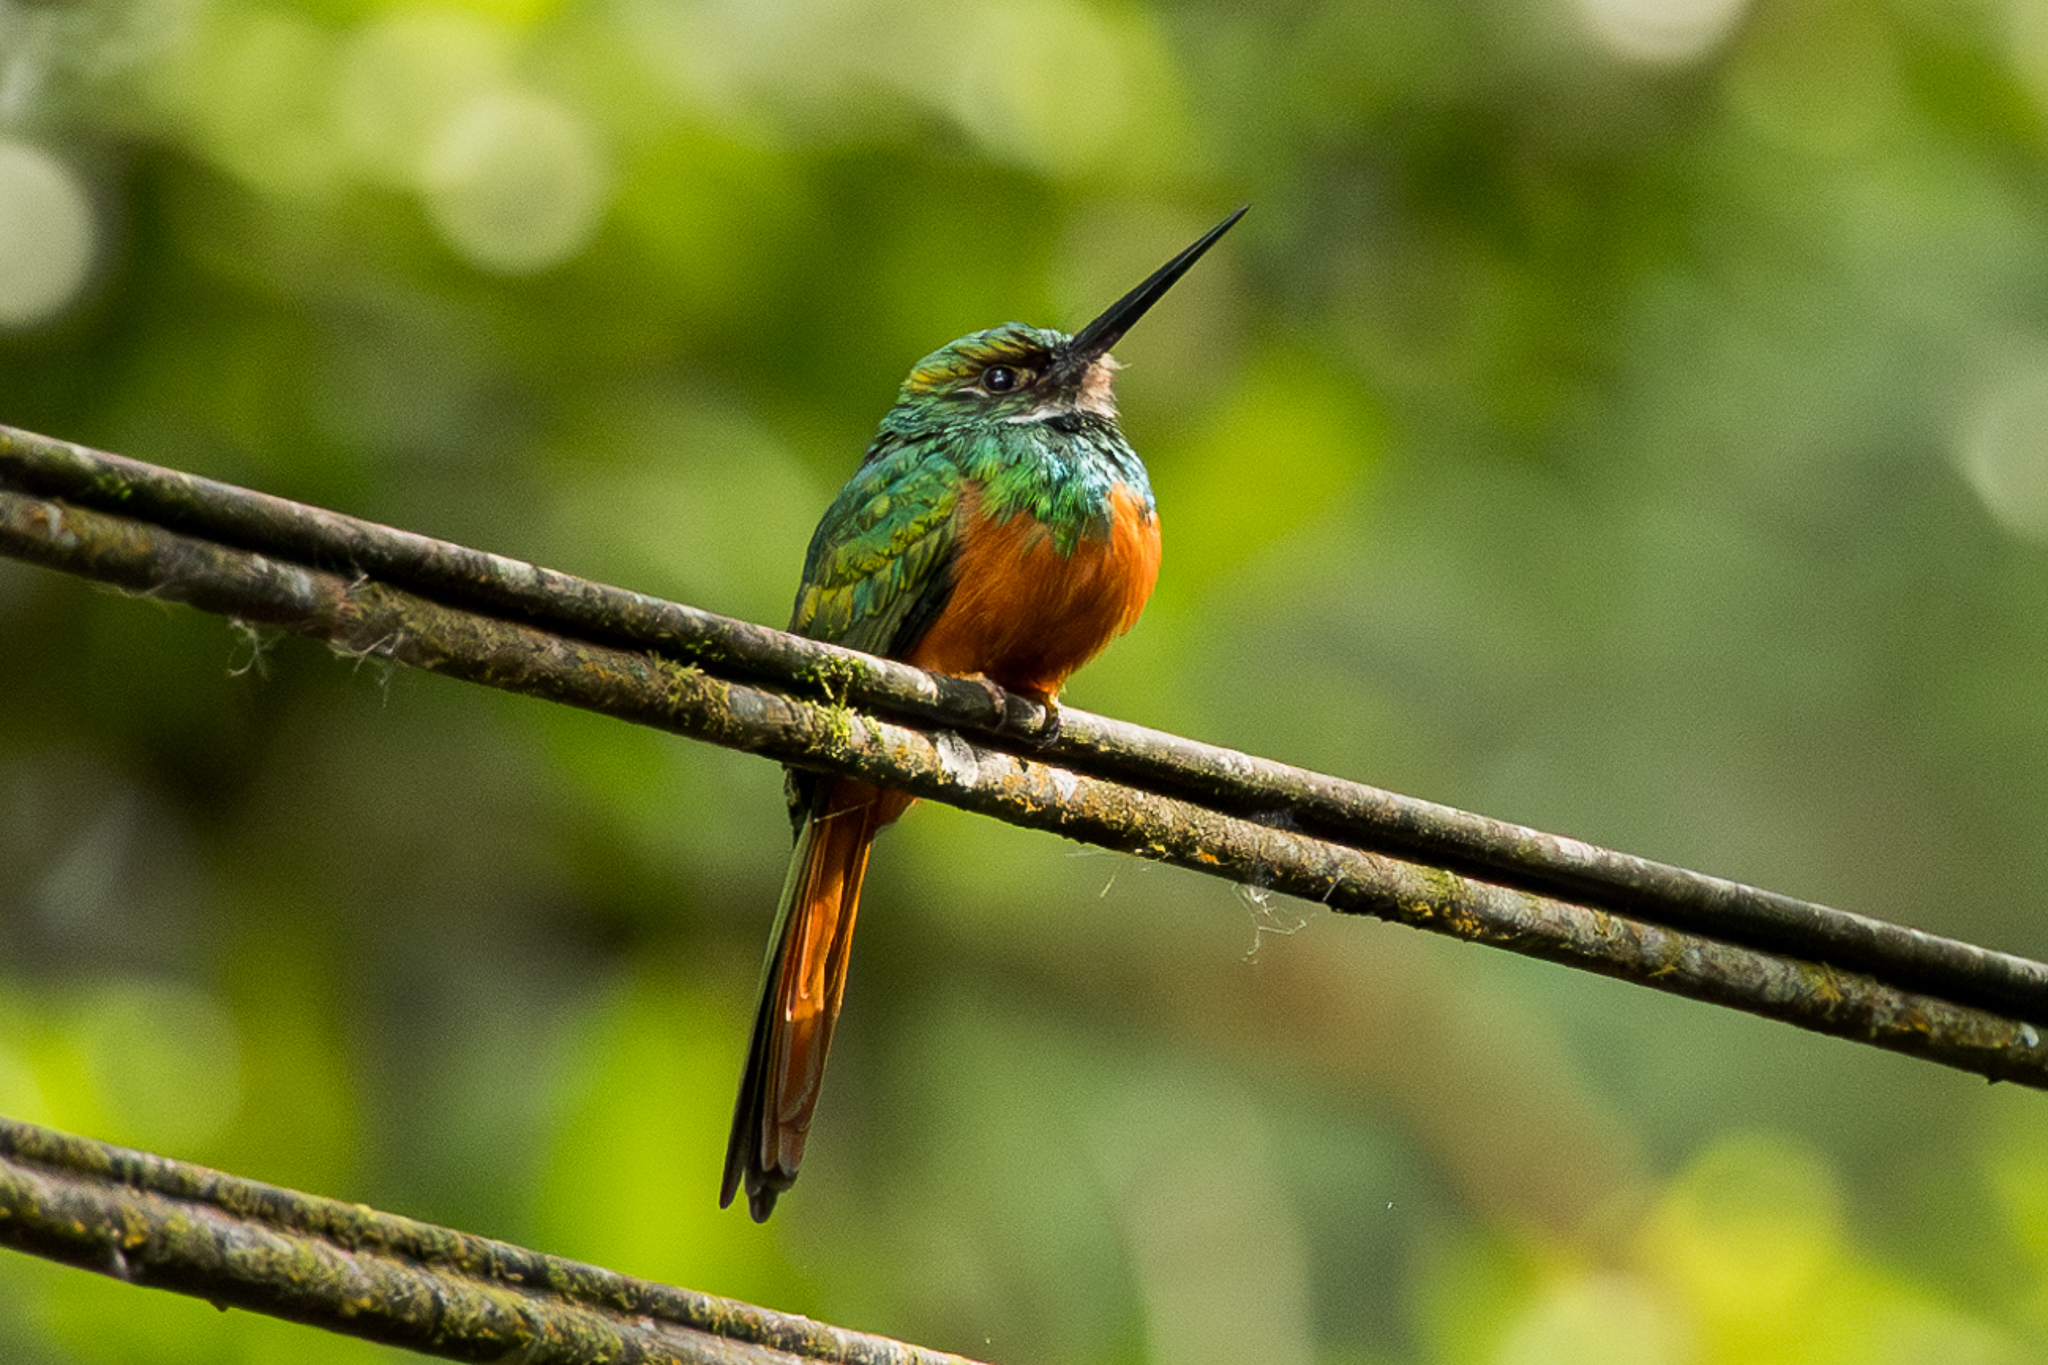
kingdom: Animalia
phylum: Chordata
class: Aves
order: Piciformes
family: Galbulidae
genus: Galbula
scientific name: Galbula ruficauda
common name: Rufous-tailed jacamar
